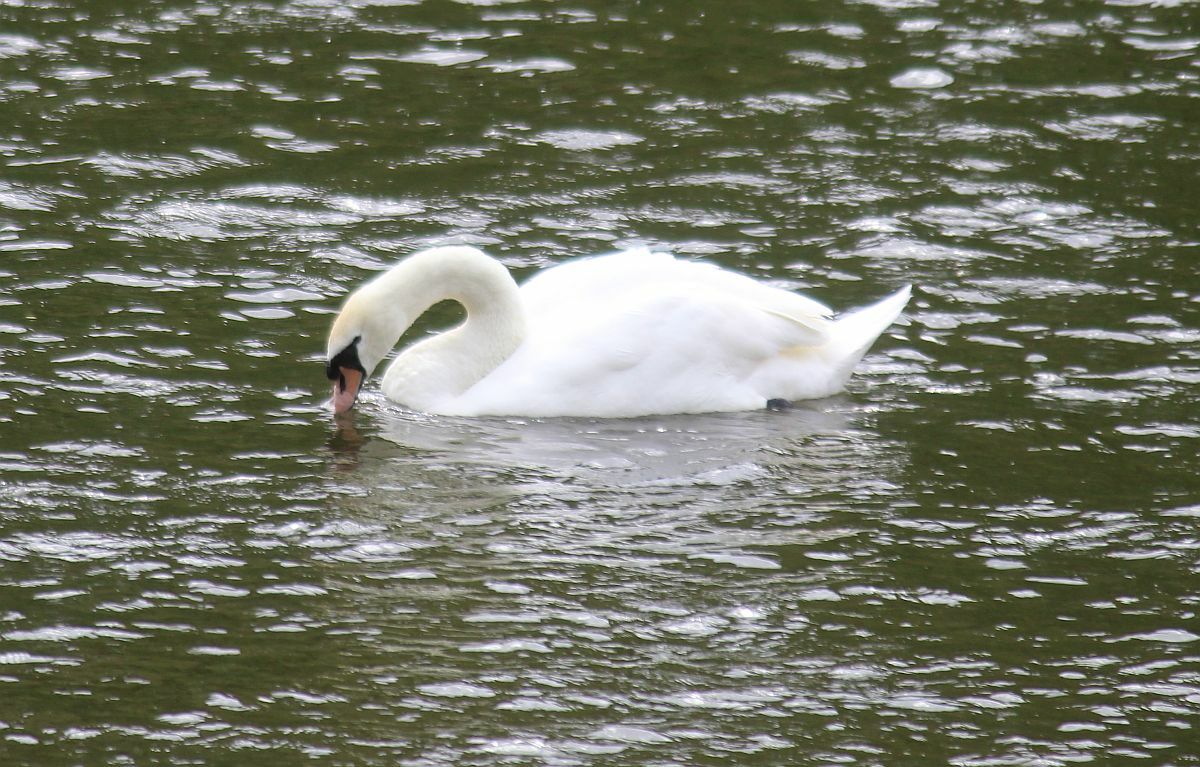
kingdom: Animalia
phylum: Chordata
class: Aves
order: Anseriformes
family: Anatidae
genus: Cygnus
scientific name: Cygnus olor
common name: Mute swan
